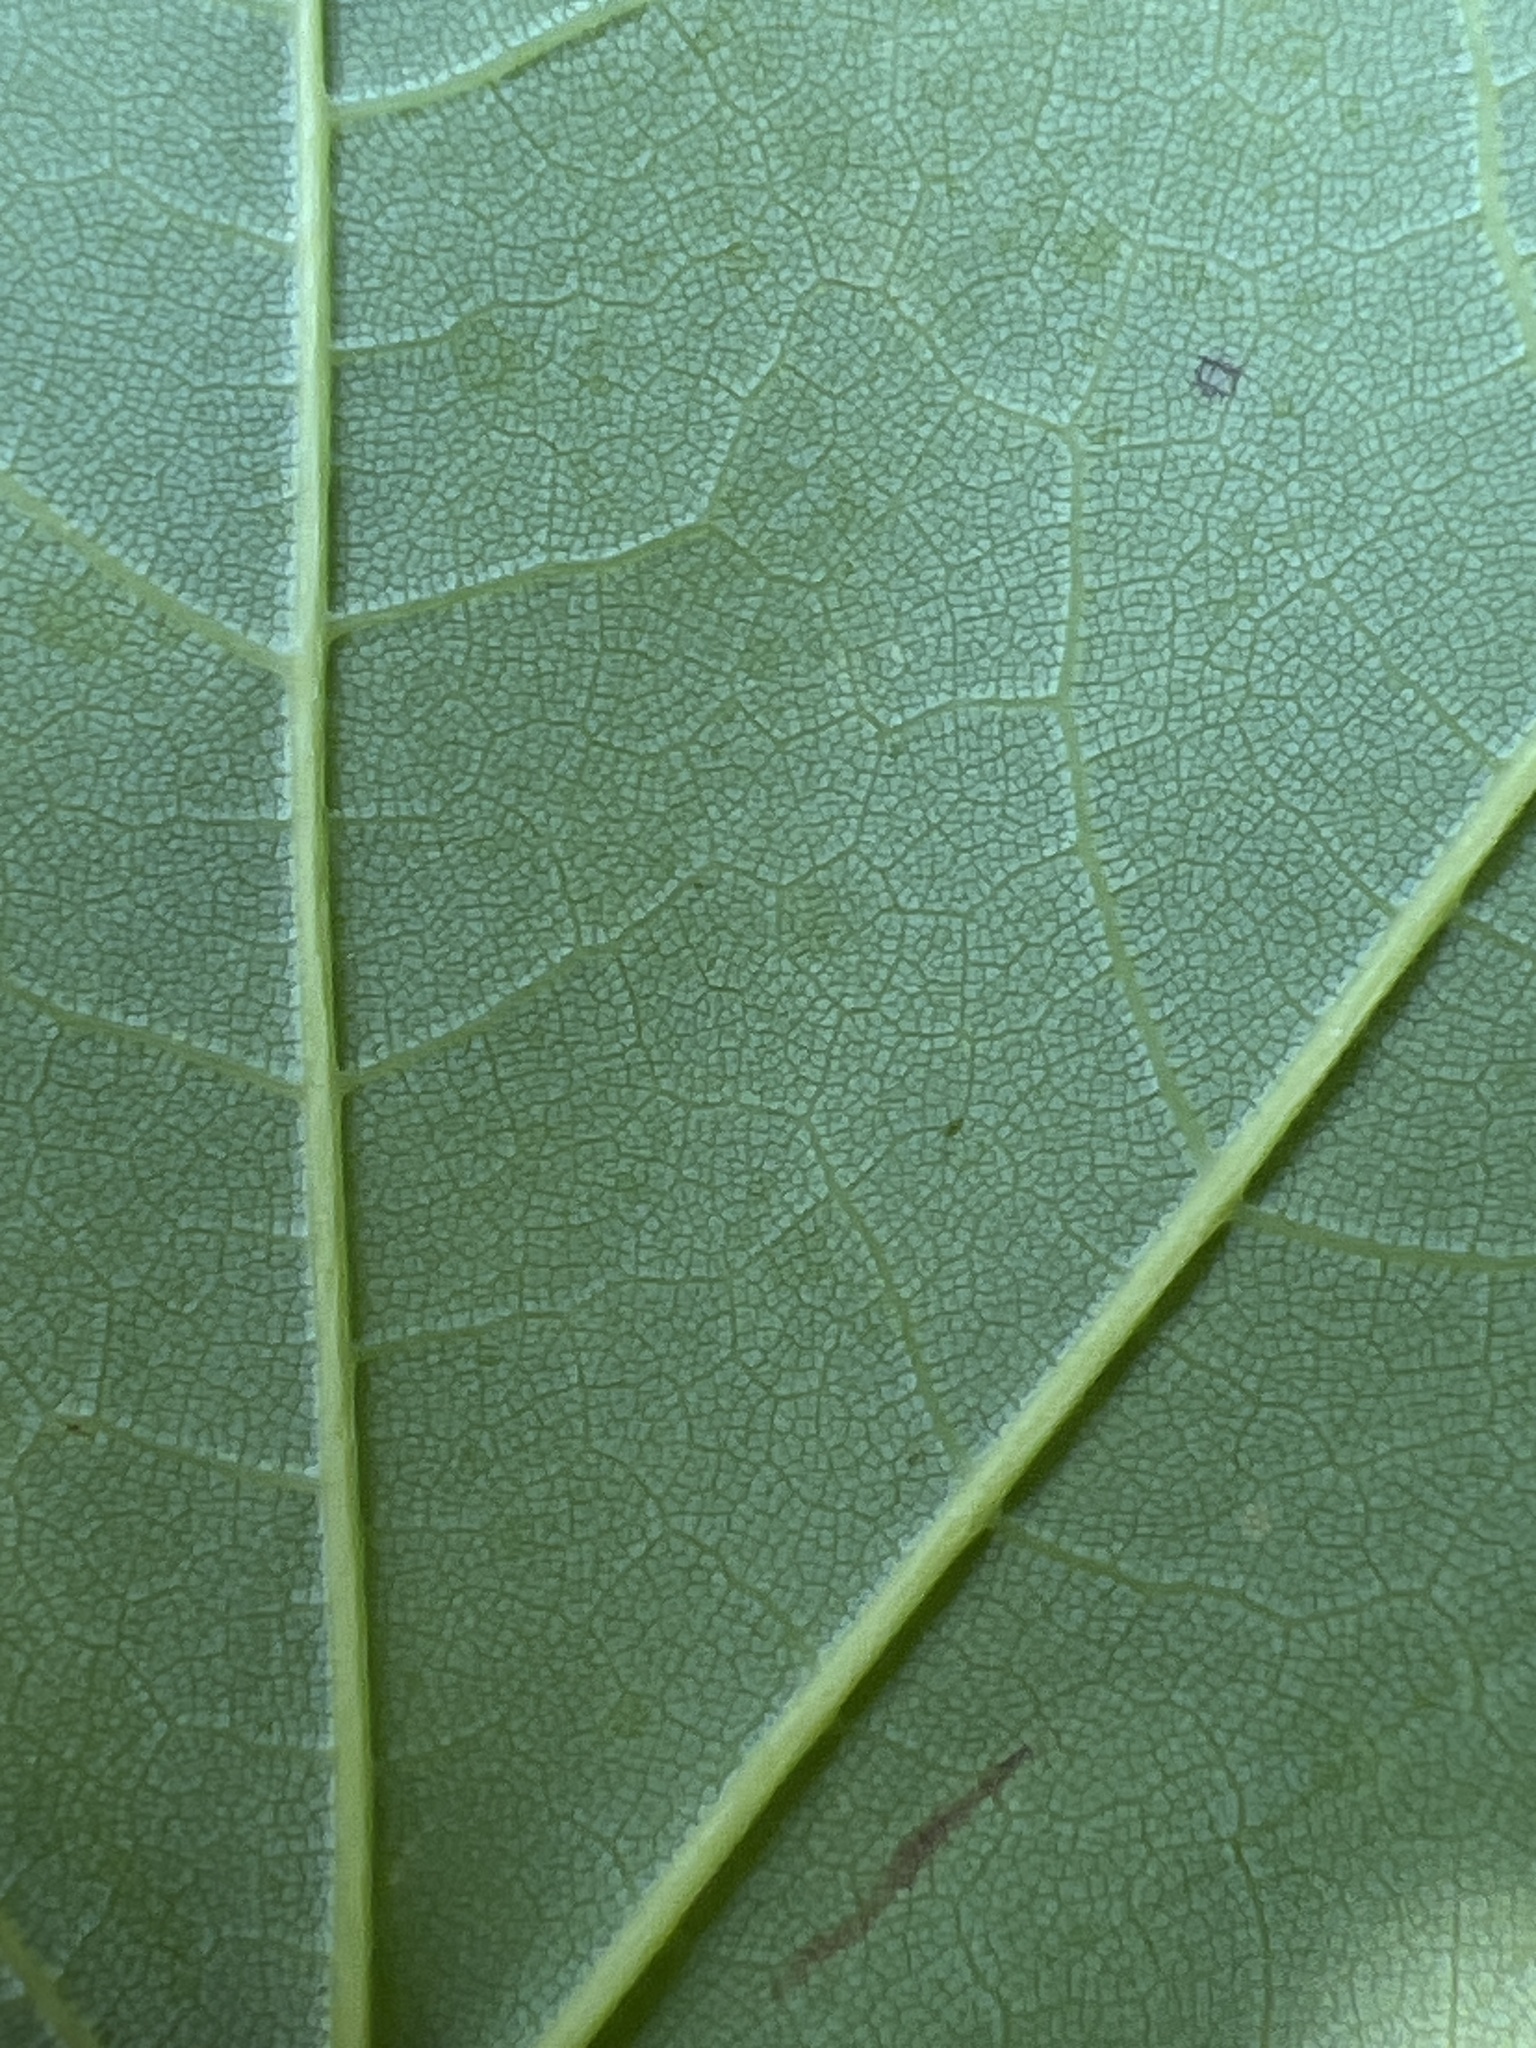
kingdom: Plantae
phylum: Tracheophyta
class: Magnoliopsida
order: Sapindales
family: Sapindaceae
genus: Acer
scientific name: Acer floridanum
